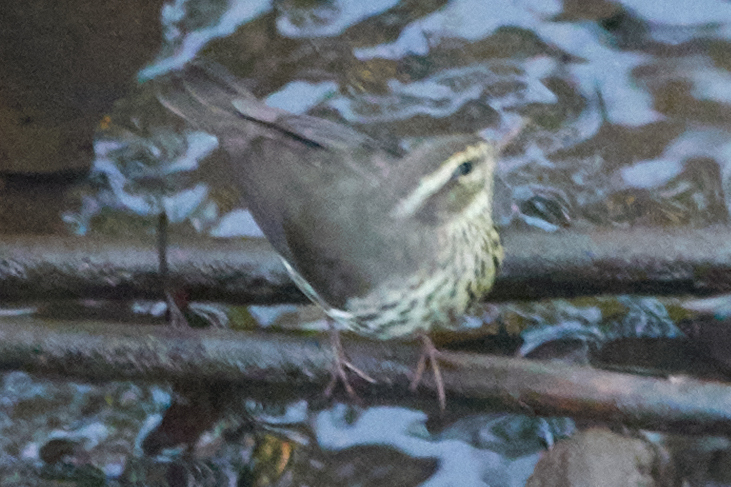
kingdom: Animalia
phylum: Chordata
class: Aves
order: Passeriformes
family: Parulidae
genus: Parkesia
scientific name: Parkesia noveboracensis
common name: Northern waterthrush
